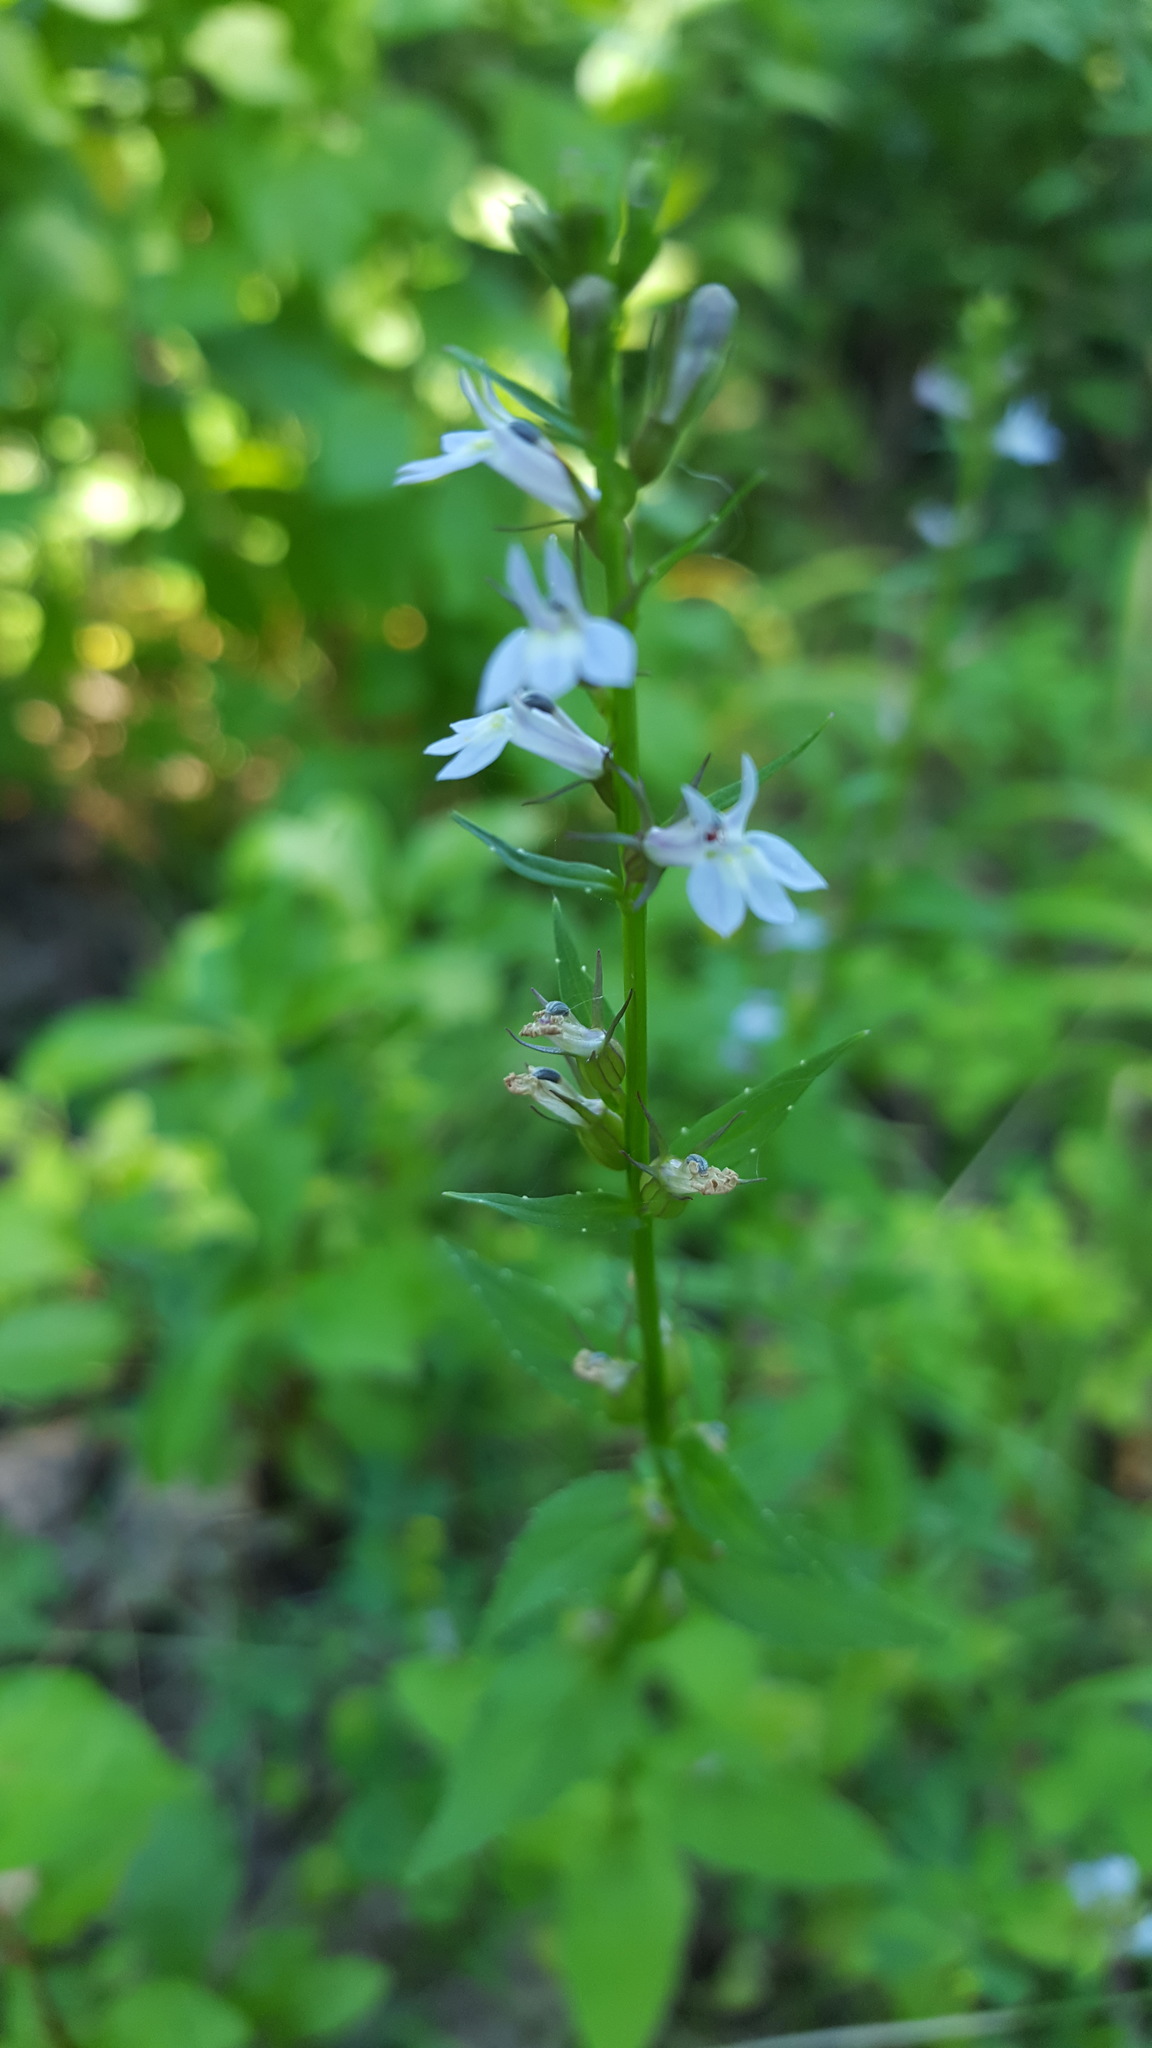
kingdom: Plantae
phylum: Tracheophyta
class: Magnoliopsida
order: Asterales
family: Campanulaceae
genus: Lobelia
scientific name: Lobelia inflata
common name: Indian tobacco
